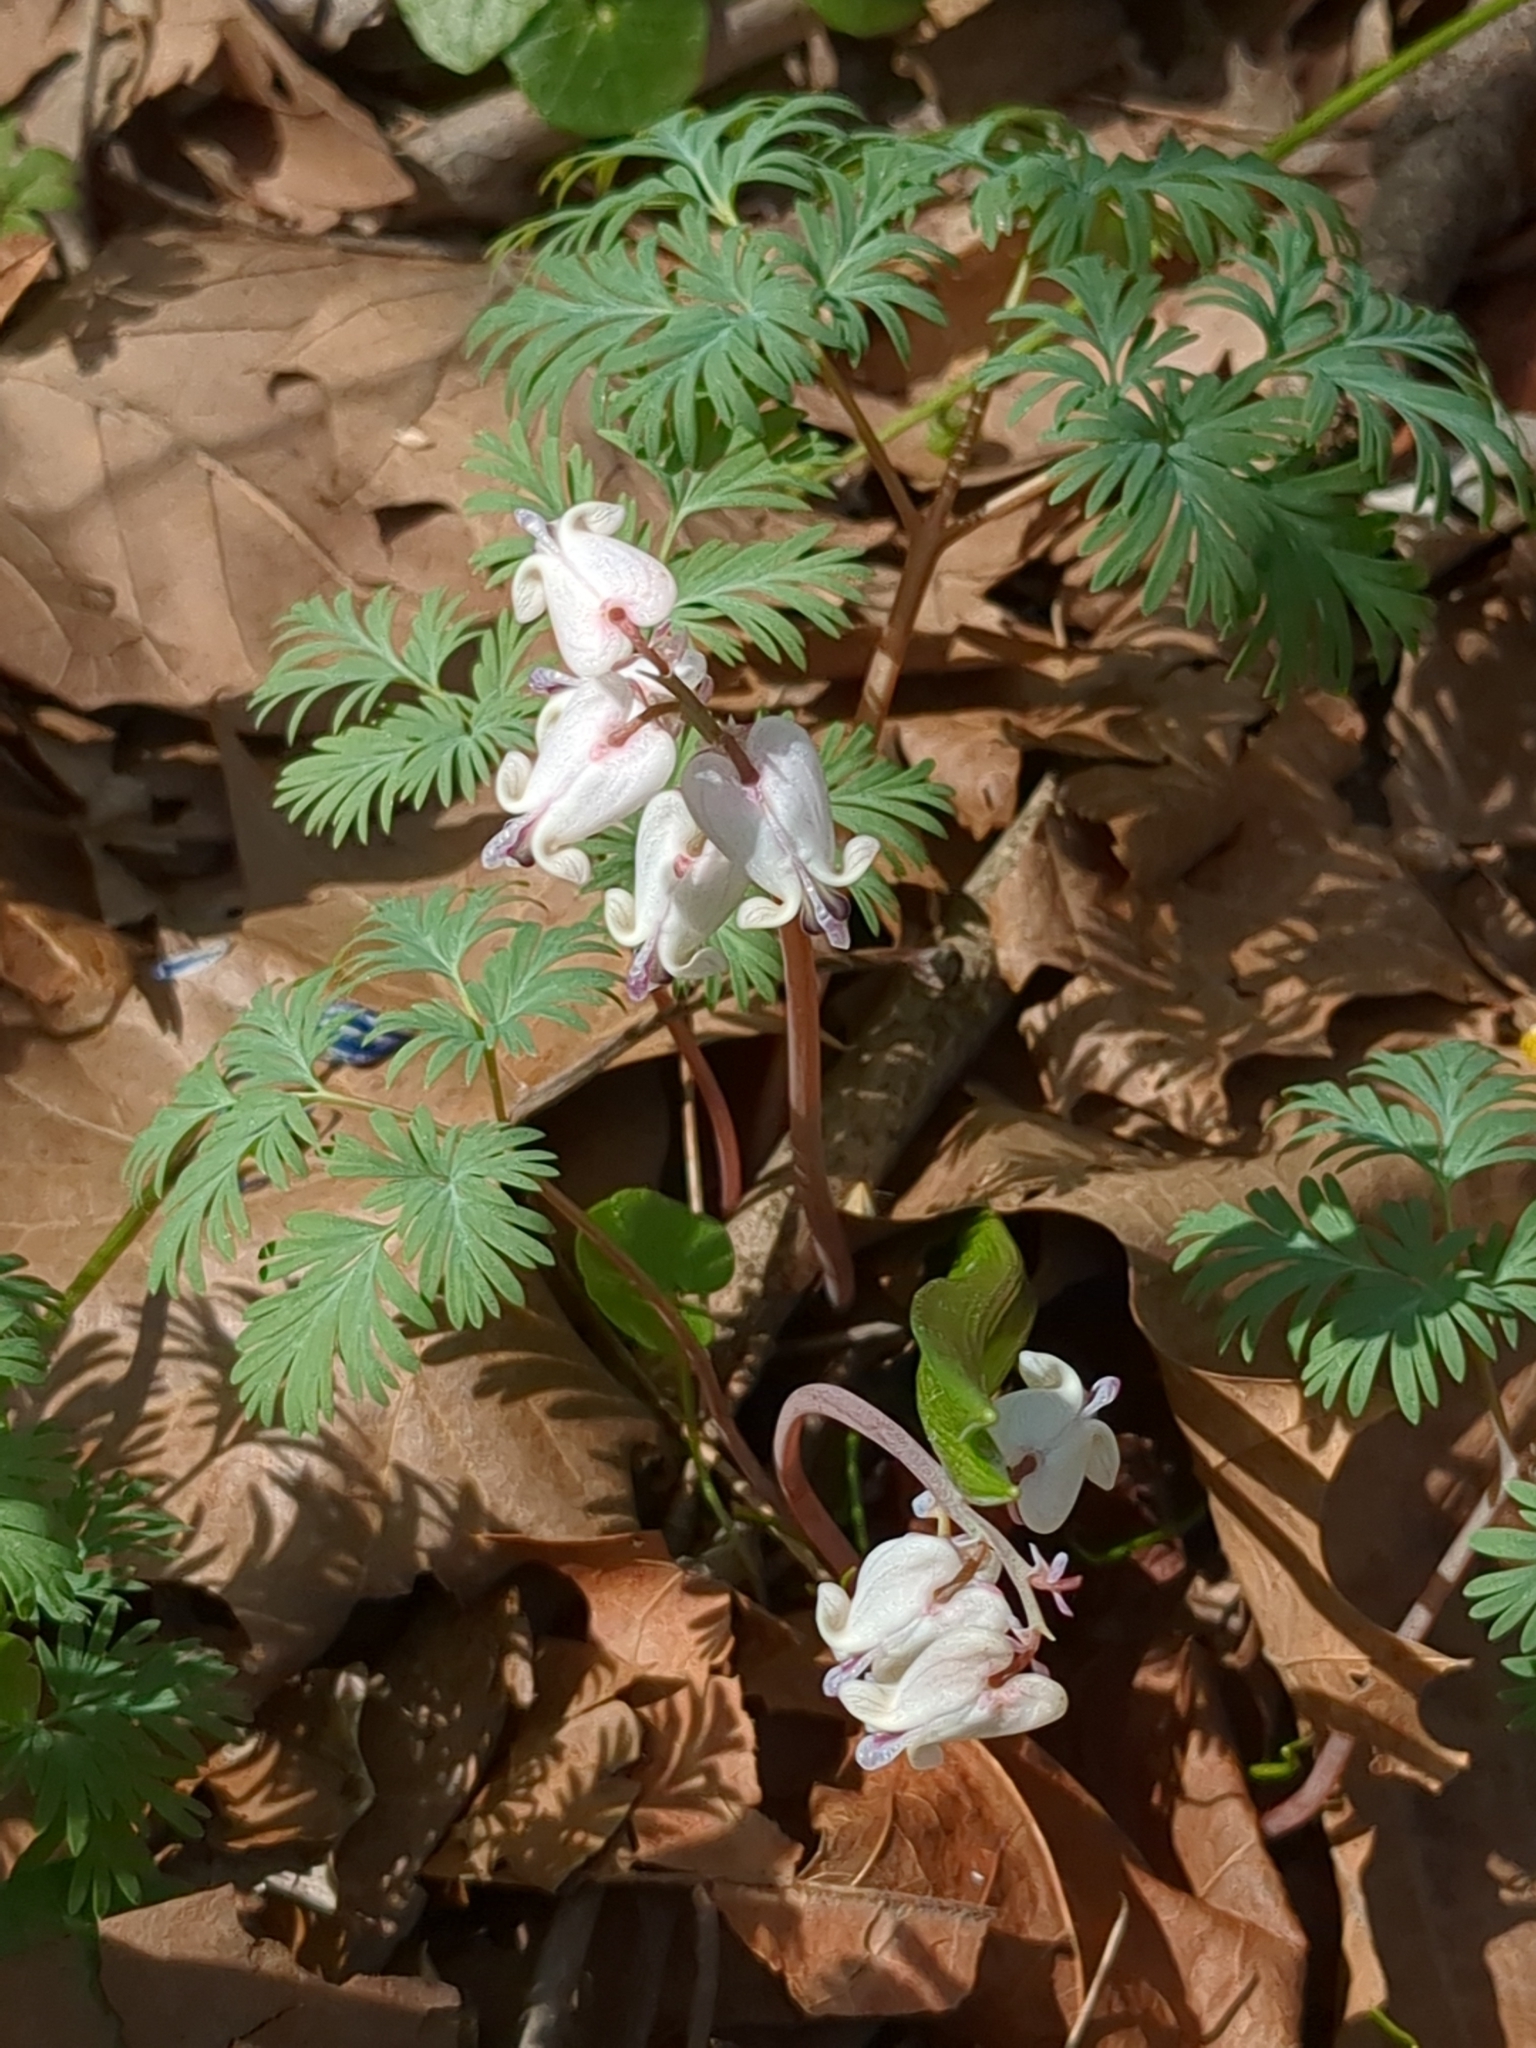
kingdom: Plantae
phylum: Tracheophyta
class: Magnoliopsida
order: Ranunculales
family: Papaveraceae
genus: Dicentra
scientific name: Dicentra canadensis
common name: Squirrel-corn
